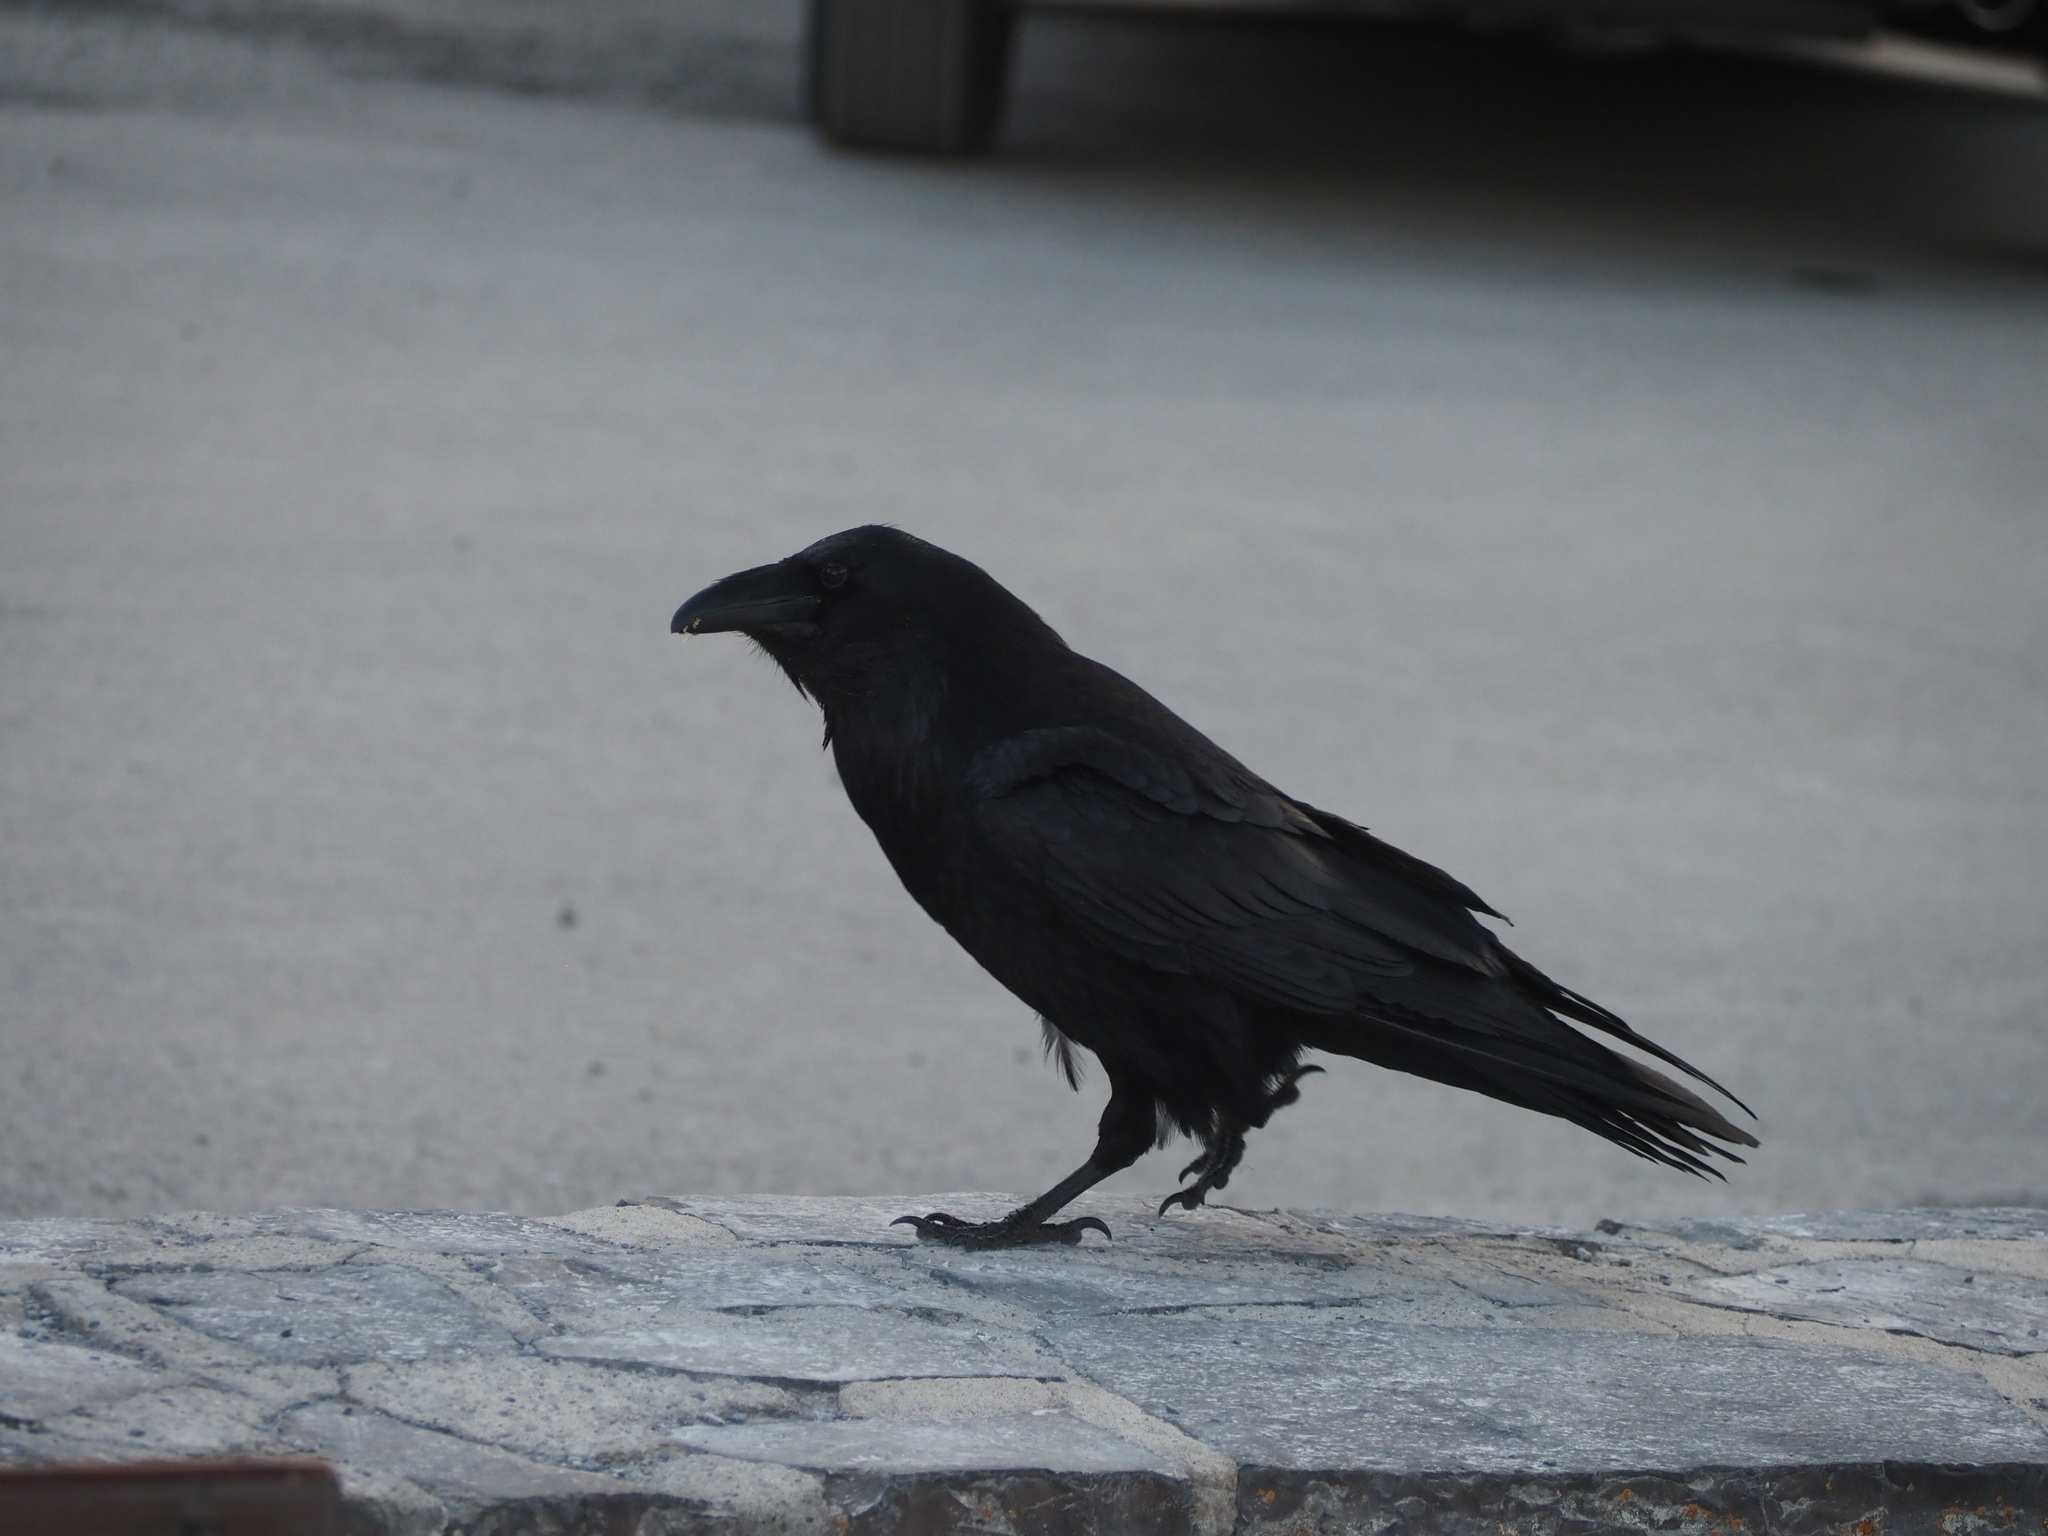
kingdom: Animalia
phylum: Chordata
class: Aves
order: Passeriformes
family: Corvidae
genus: Corvus
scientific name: Corvus corax
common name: Common raven
